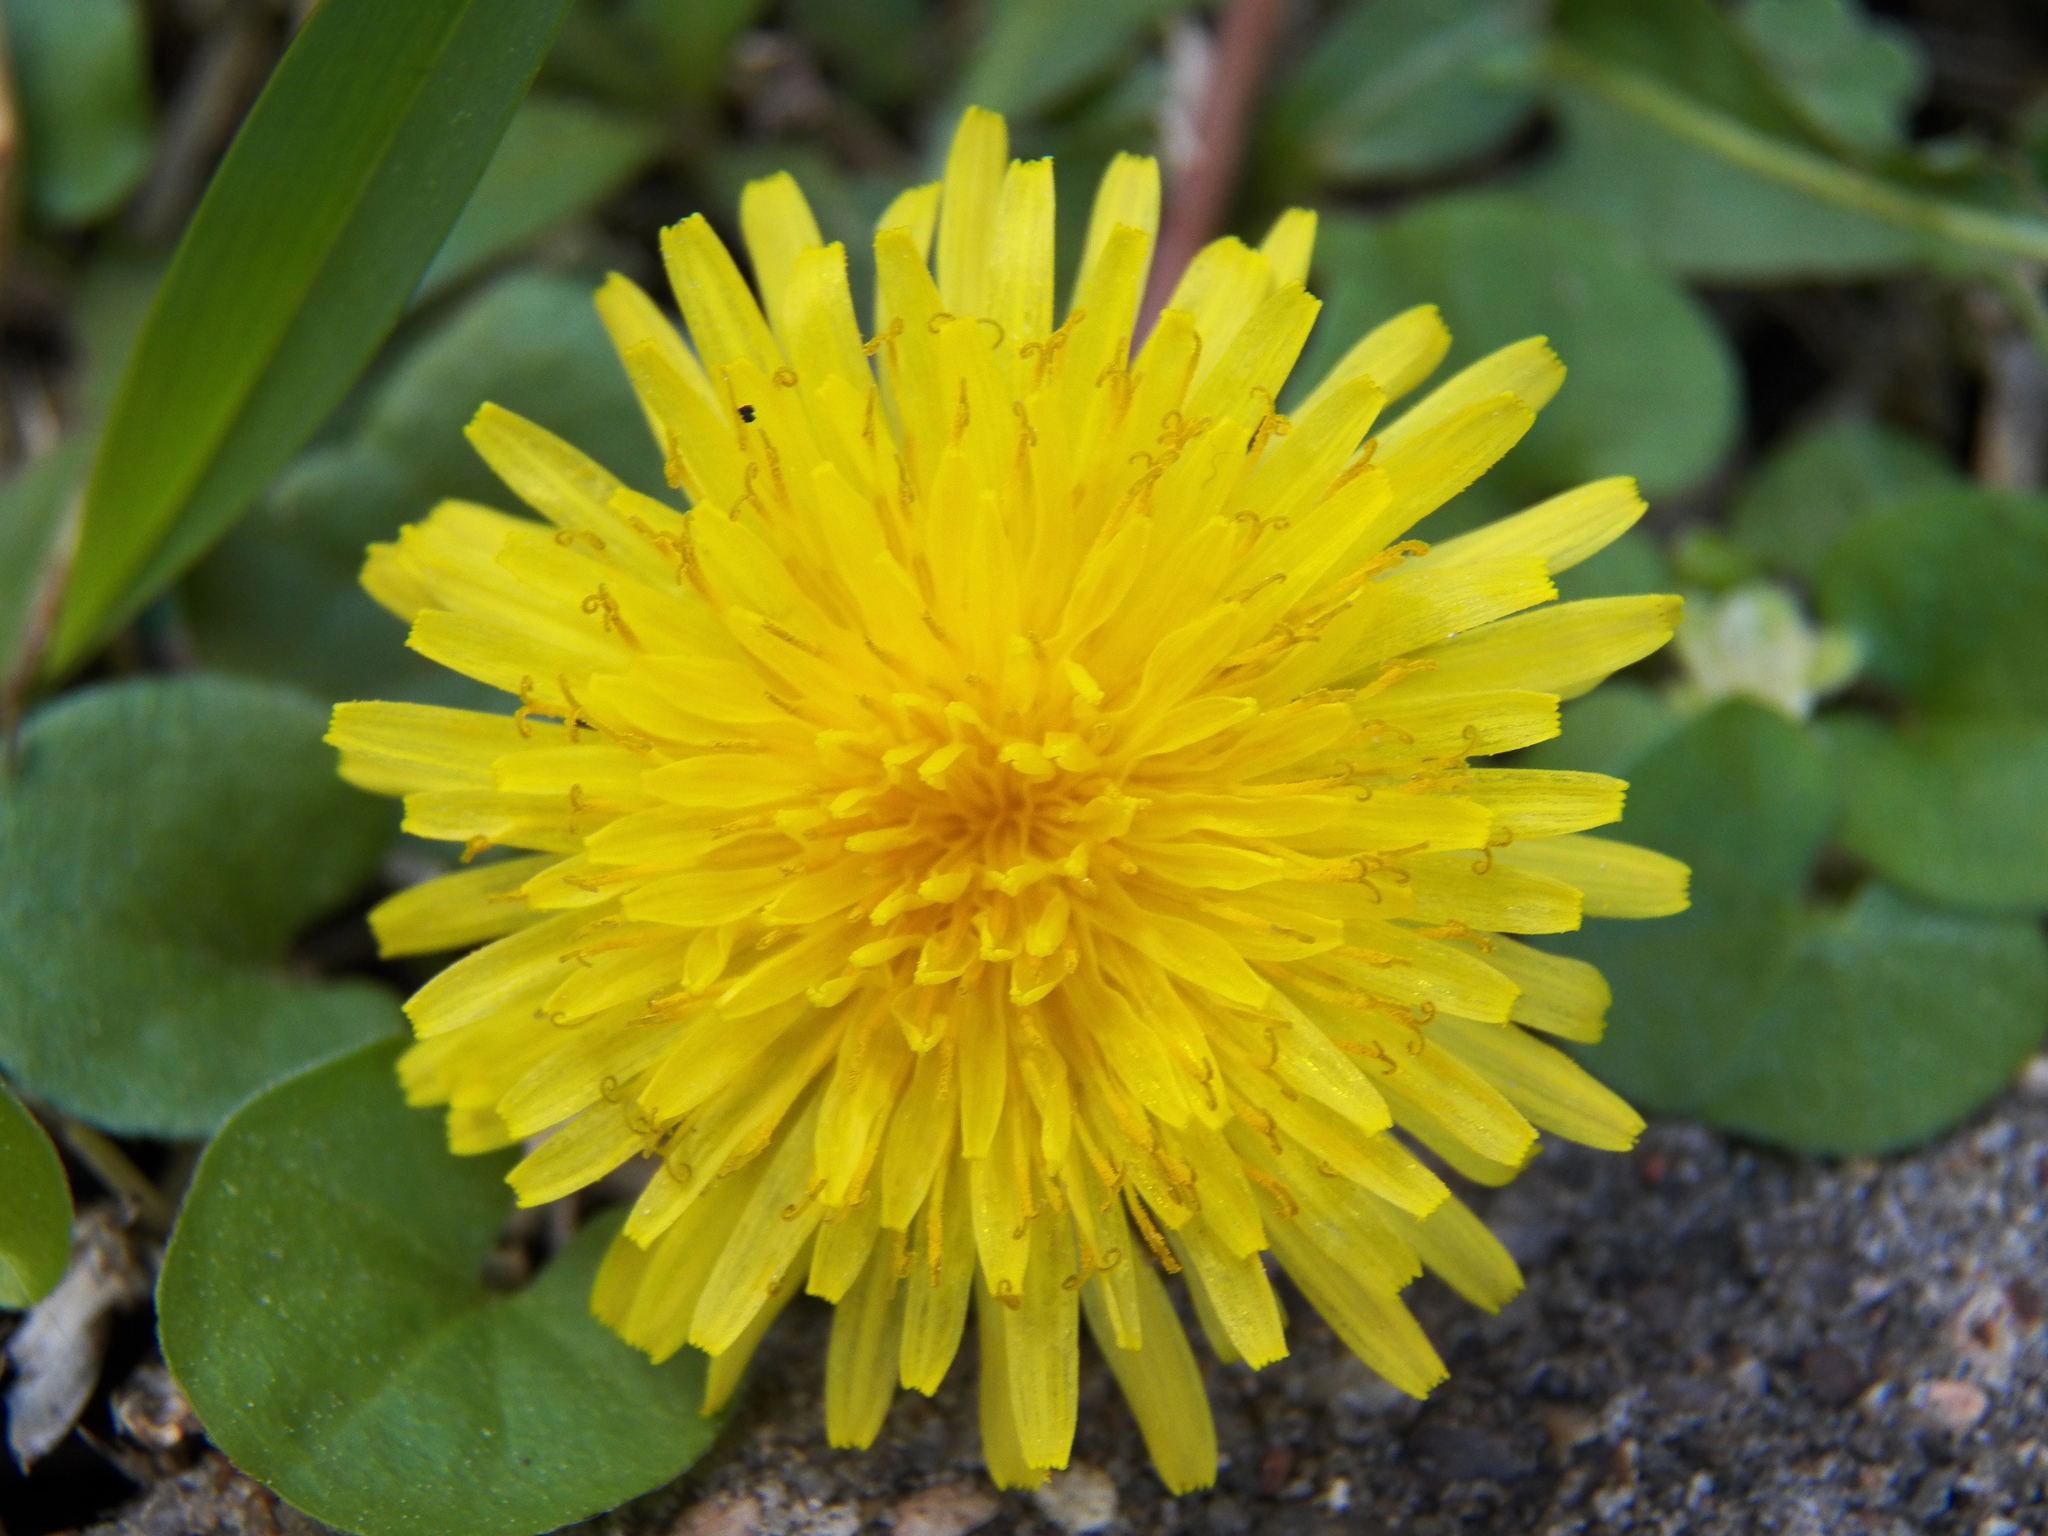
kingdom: Plantae
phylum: Tracheophyta
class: Magnoliopsida
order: Asterales
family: Asteraceae
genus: Taraxacum
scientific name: Taraxacum officinale
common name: Common dandelion
